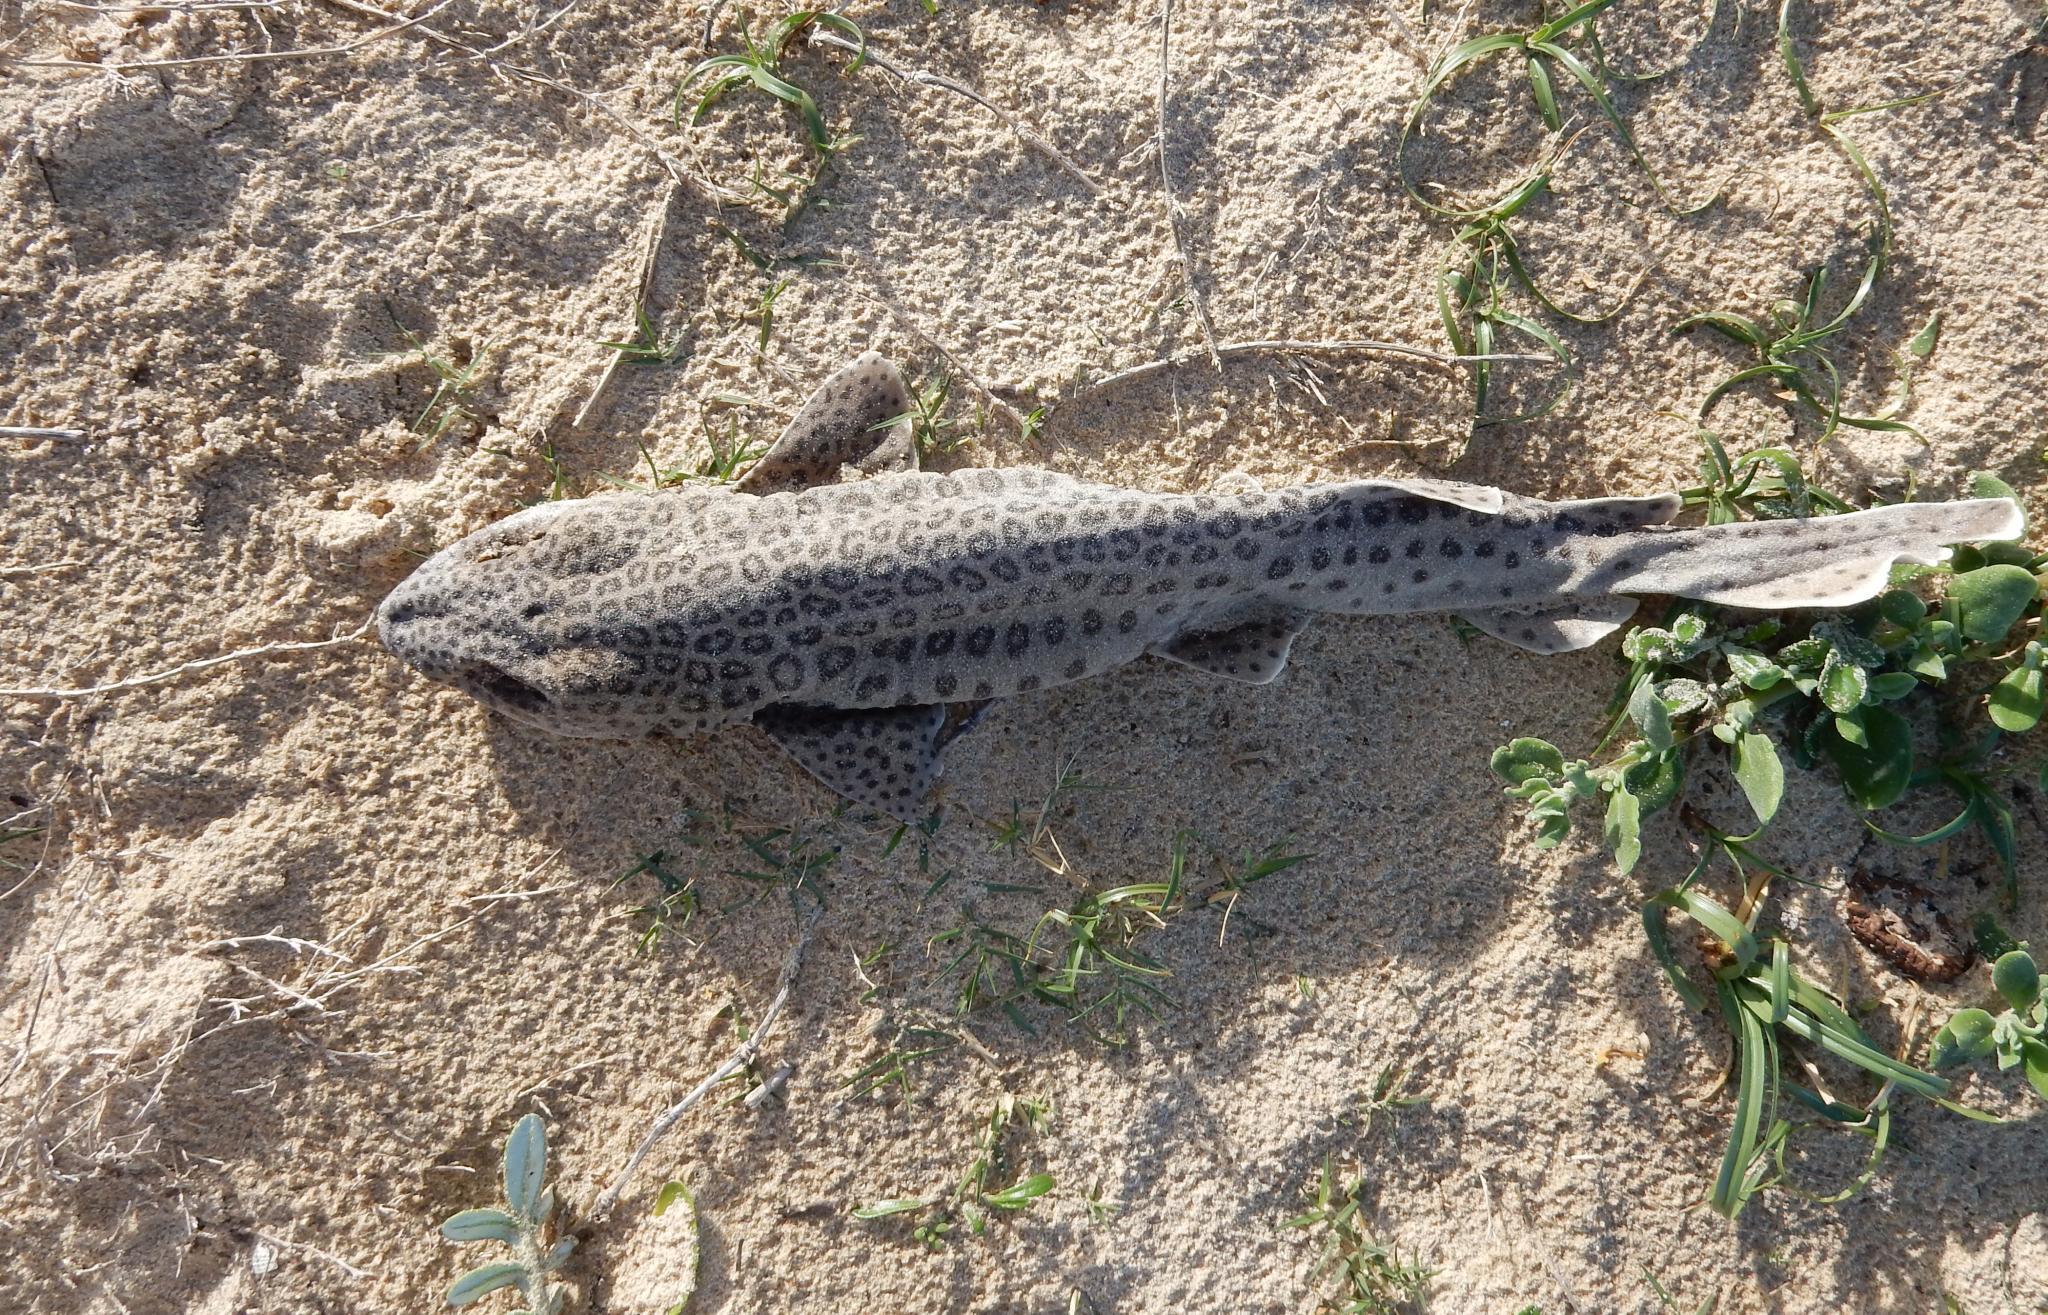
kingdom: Animalia
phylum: Chordata
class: Elasmobranchii
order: Carcharhiniformes
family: Scyliorhinidae
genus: Poroderma
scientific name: Poroderma pantherinum
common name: Leopard catshark
